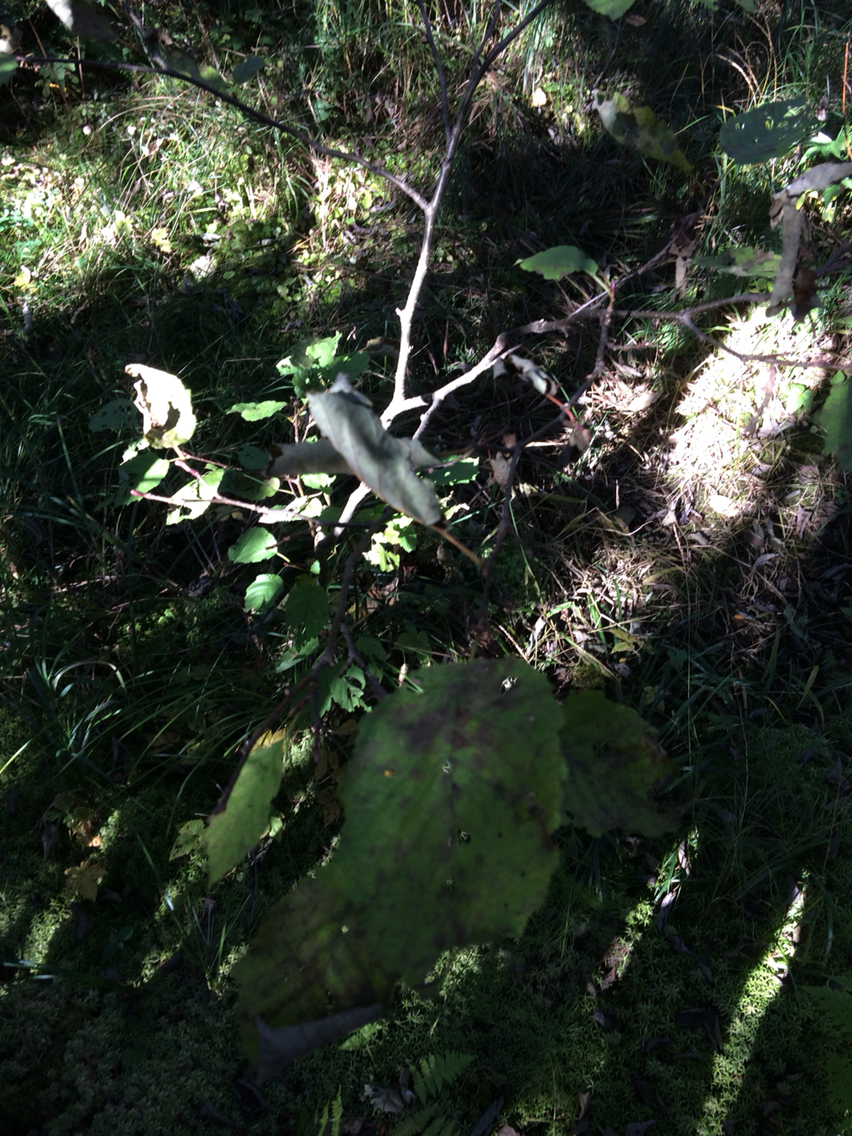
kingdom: Plantae
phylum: Tracheophyta
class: Magnoliopsida
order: Fagales
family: Betulaceae
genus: Alnus
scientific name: Alnus incana
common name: Grey alder
